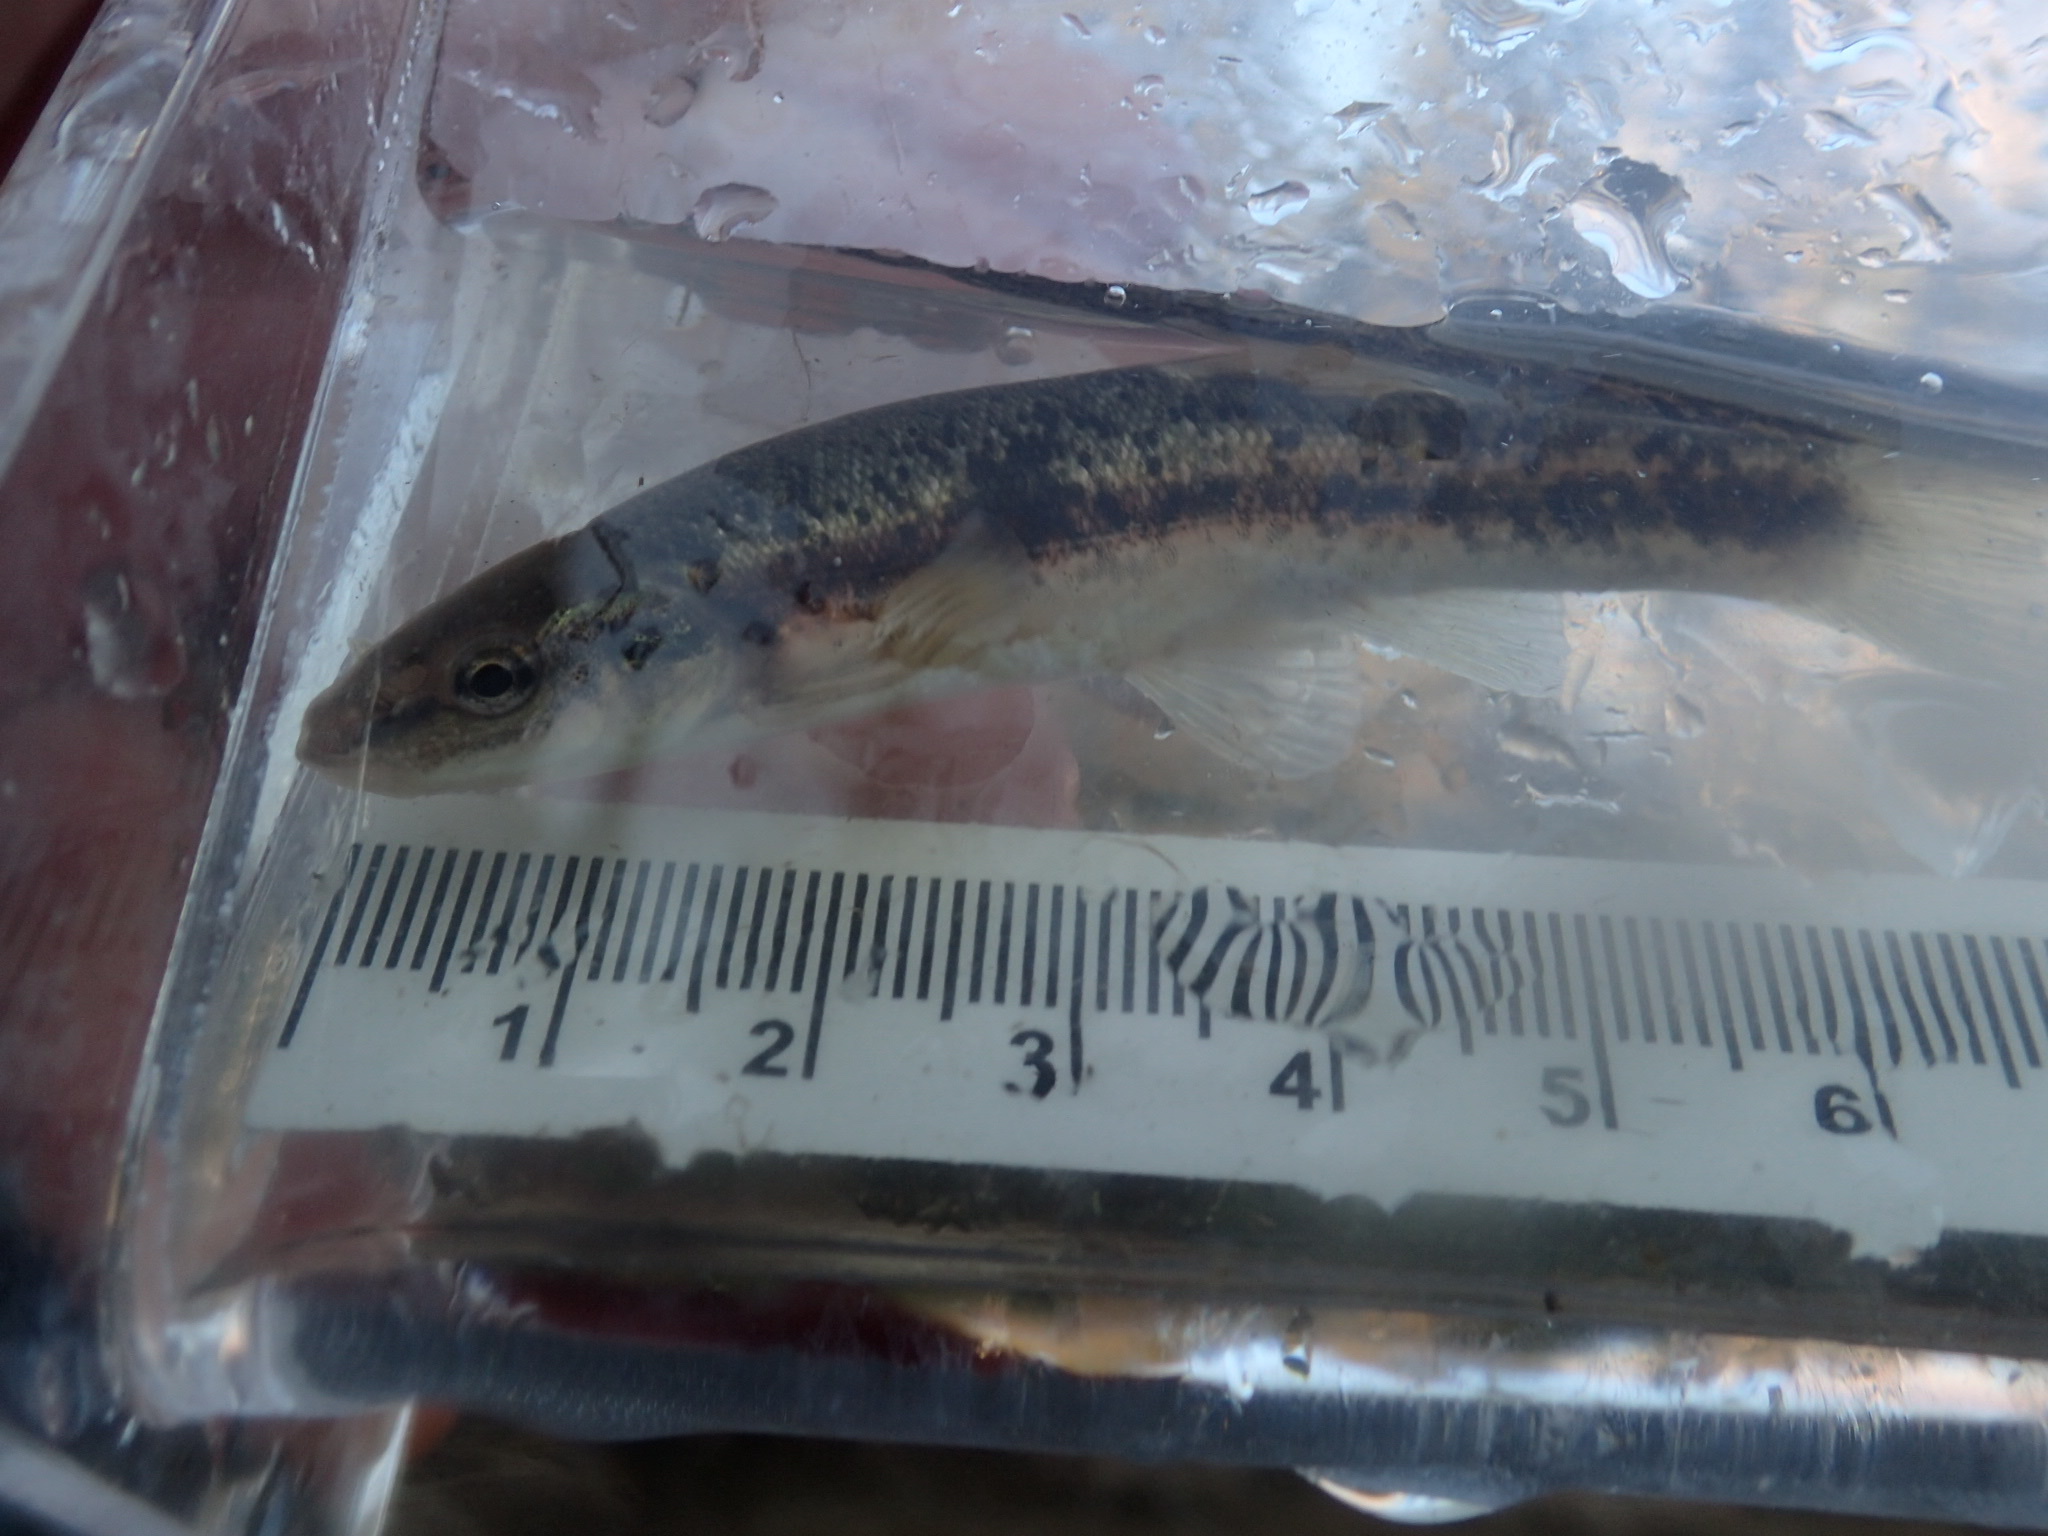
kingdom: Animalia
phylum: Chordata
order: Cypriniformes
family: Cyprinidae
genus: Rhinichthys
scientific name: Rhinichthys obtusus
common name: Western blacknose dace
